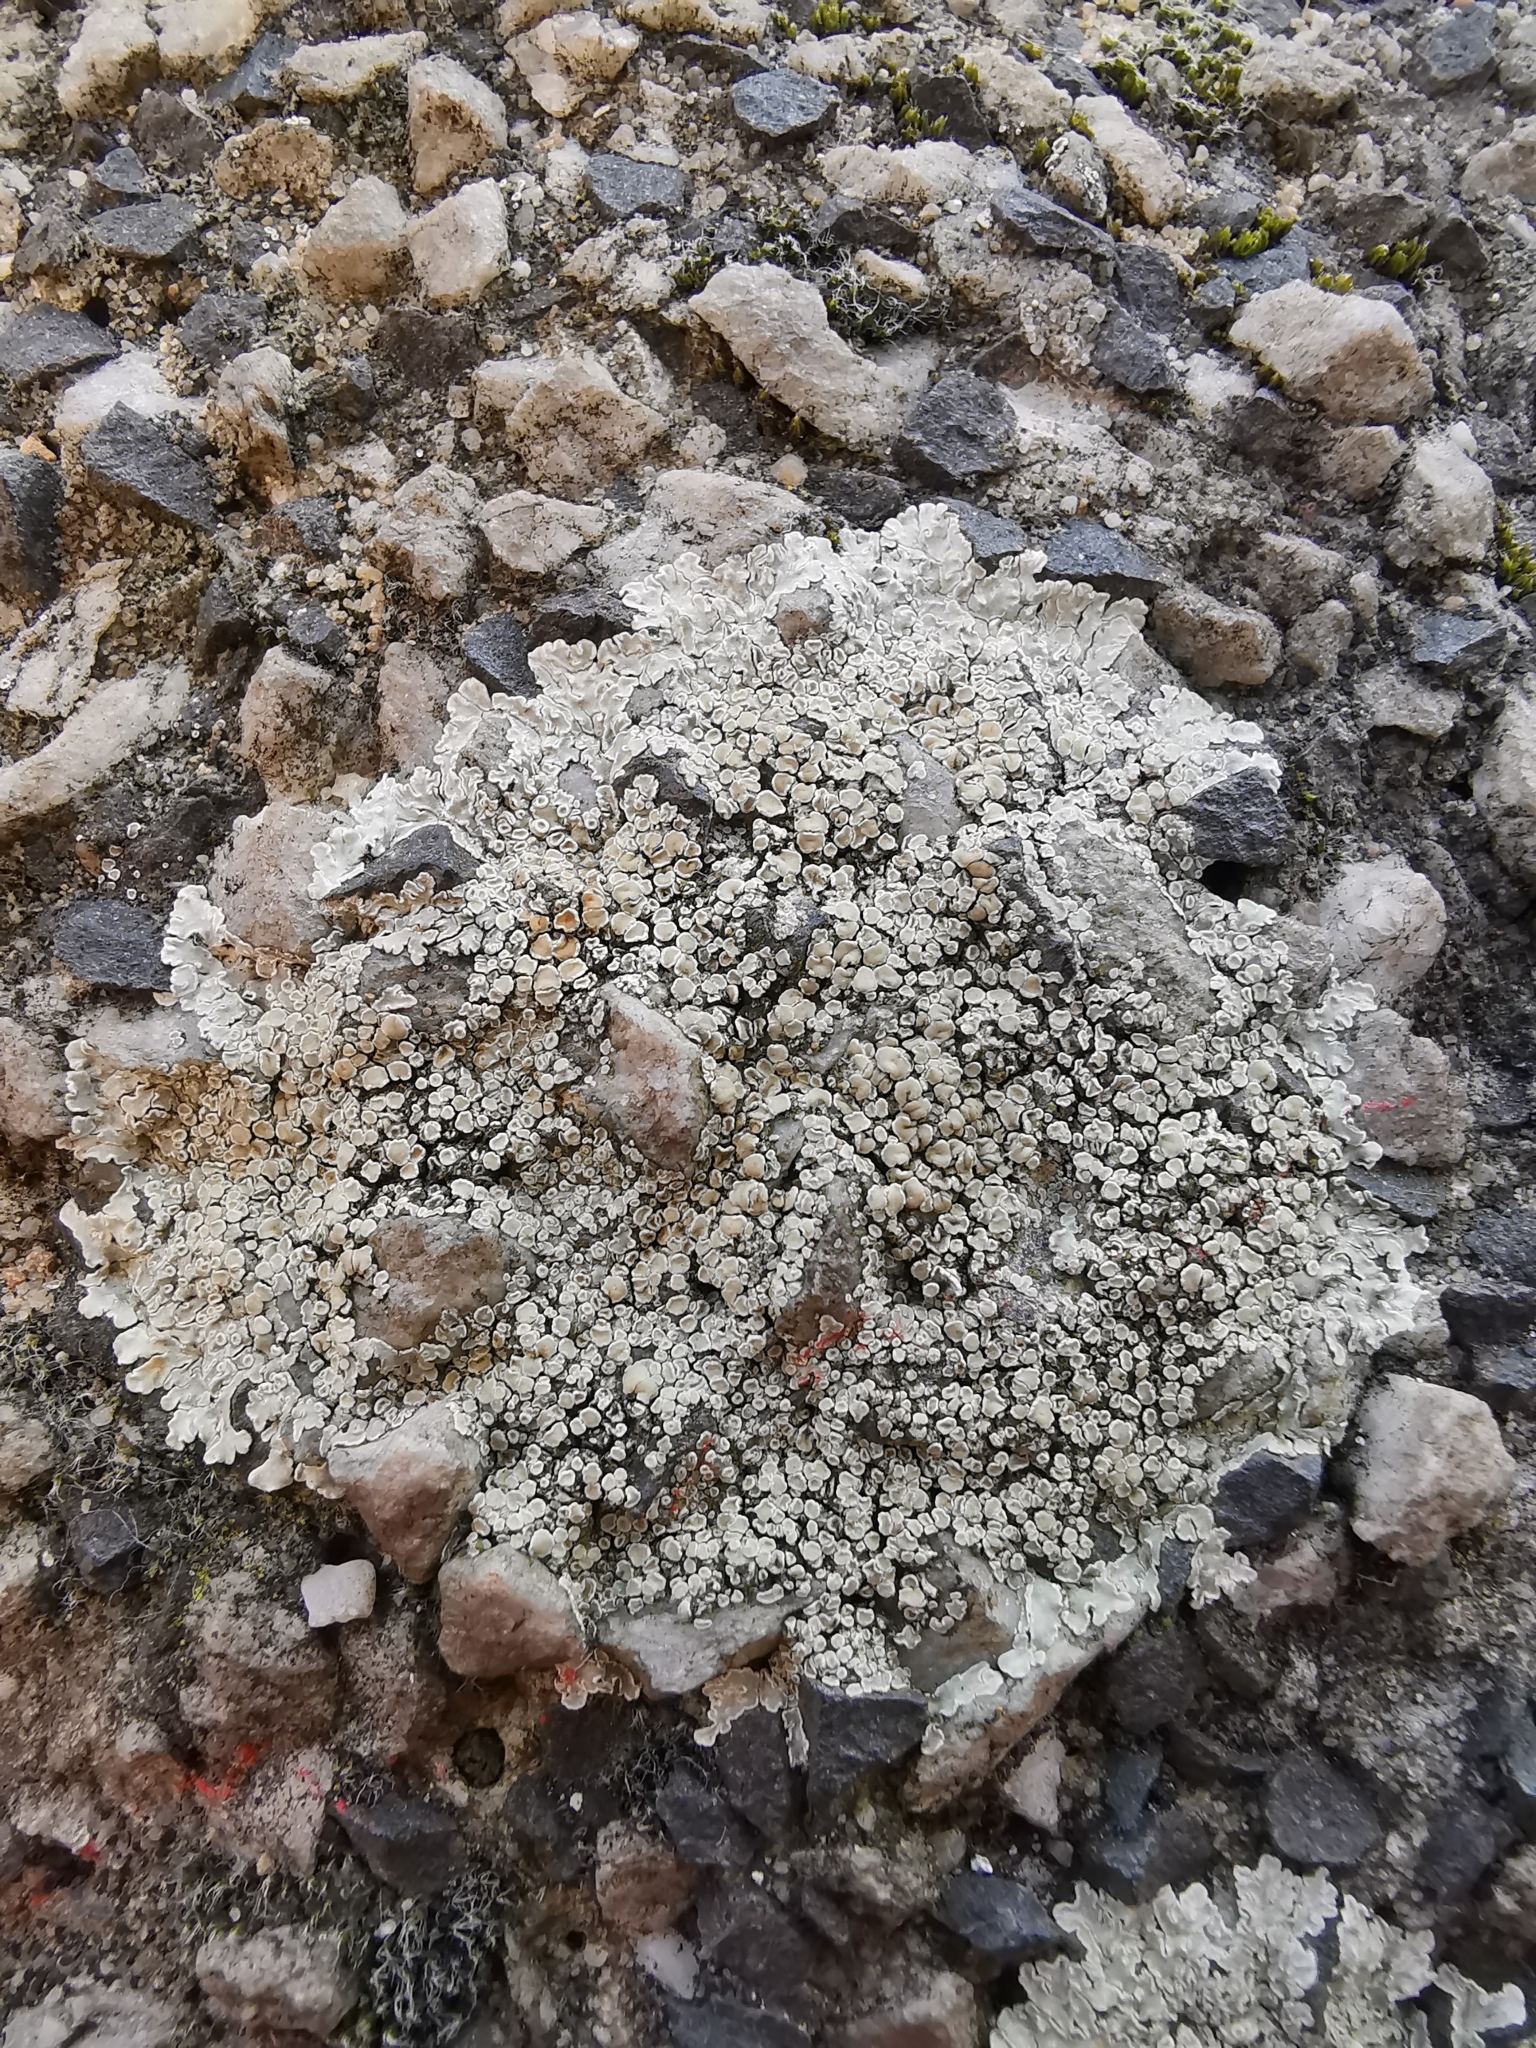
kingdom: Fungi
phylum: Ascomycota
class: Lecanoromycetes
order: Lecanorales
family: Lecanoraceae
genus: Protoparmeliopsis
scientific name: Protoparmeliopsis muralis
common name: Stonewall rim lichen
